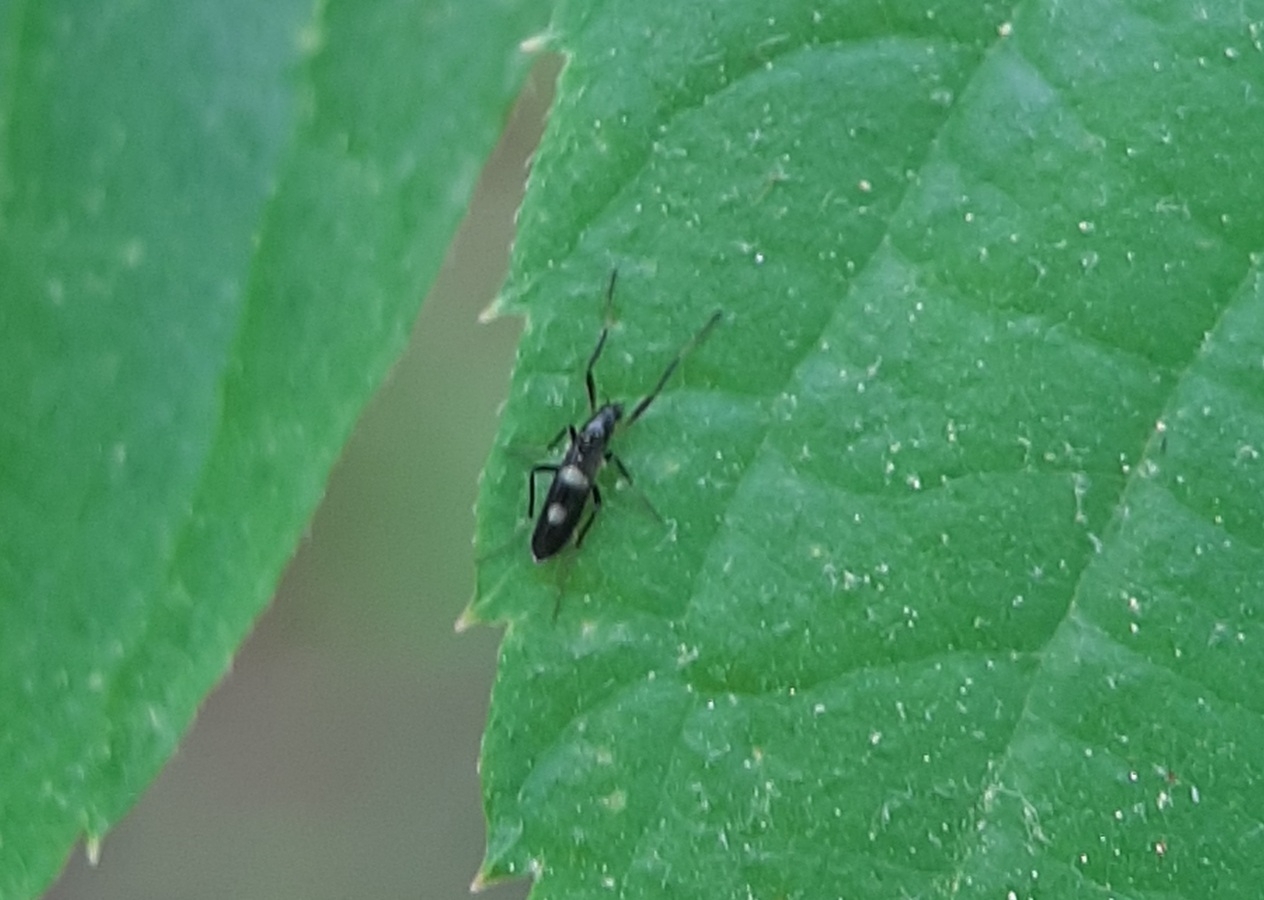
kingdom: Animalia
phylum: Arthropoda
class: Insecta
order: Diptera
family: Chironomidae
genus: Chasmatonotus
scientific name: Chasmatonotus bimaculatus
